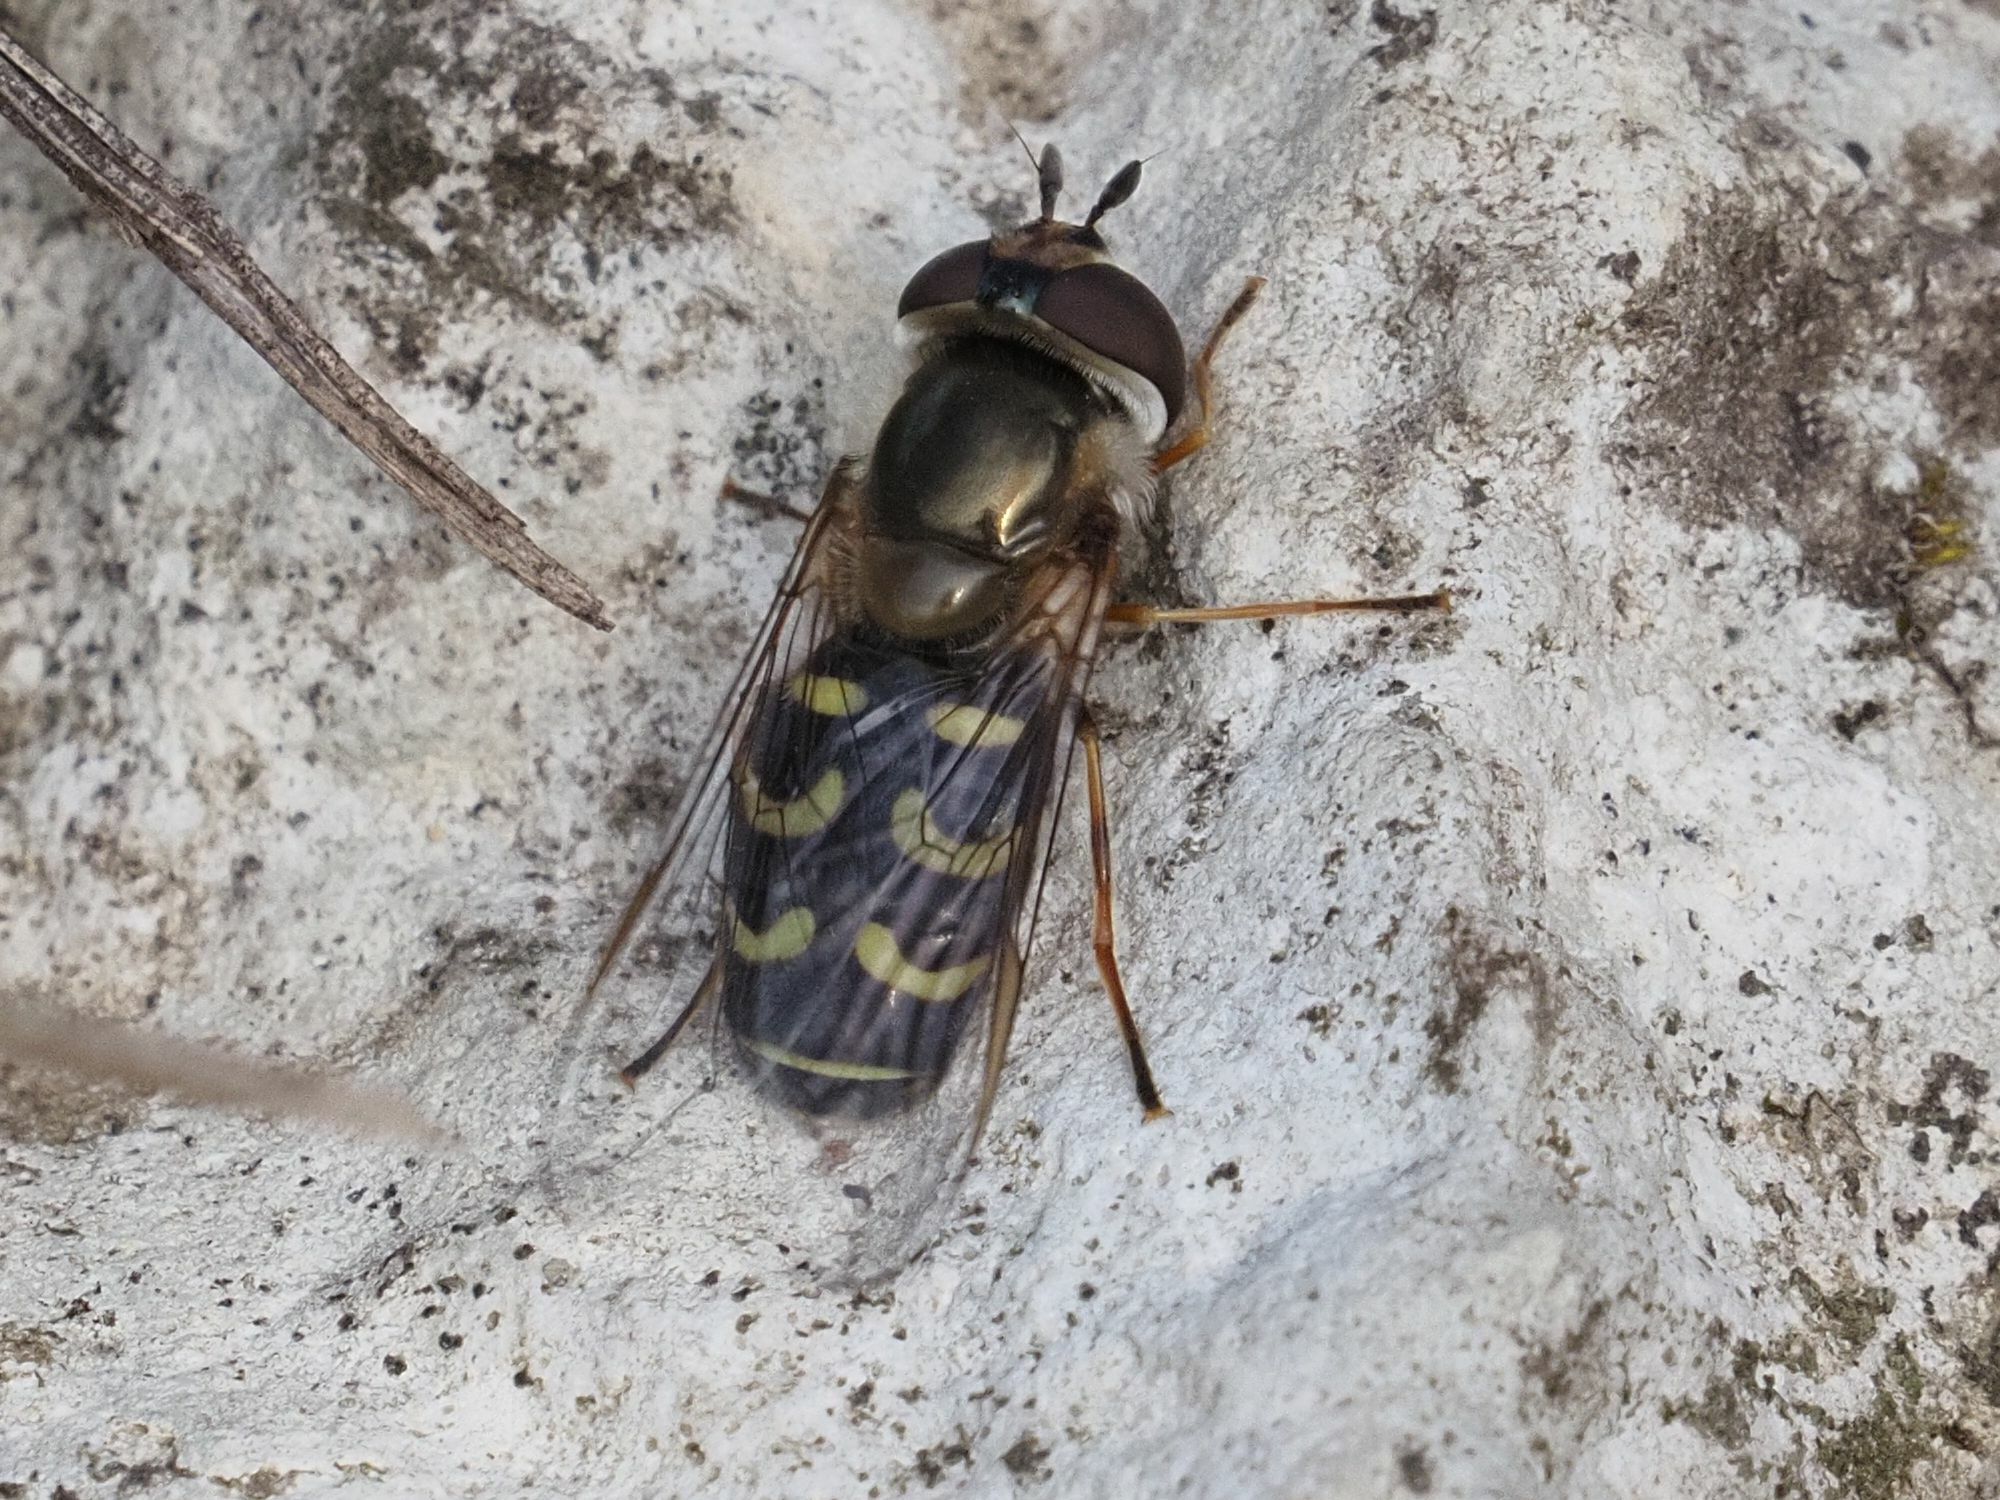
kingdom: Animalia
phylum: Arthropoda
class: Insecta
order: Diptera
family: Syrphidae
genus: Scaeva
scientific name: Scaeva selenitica
